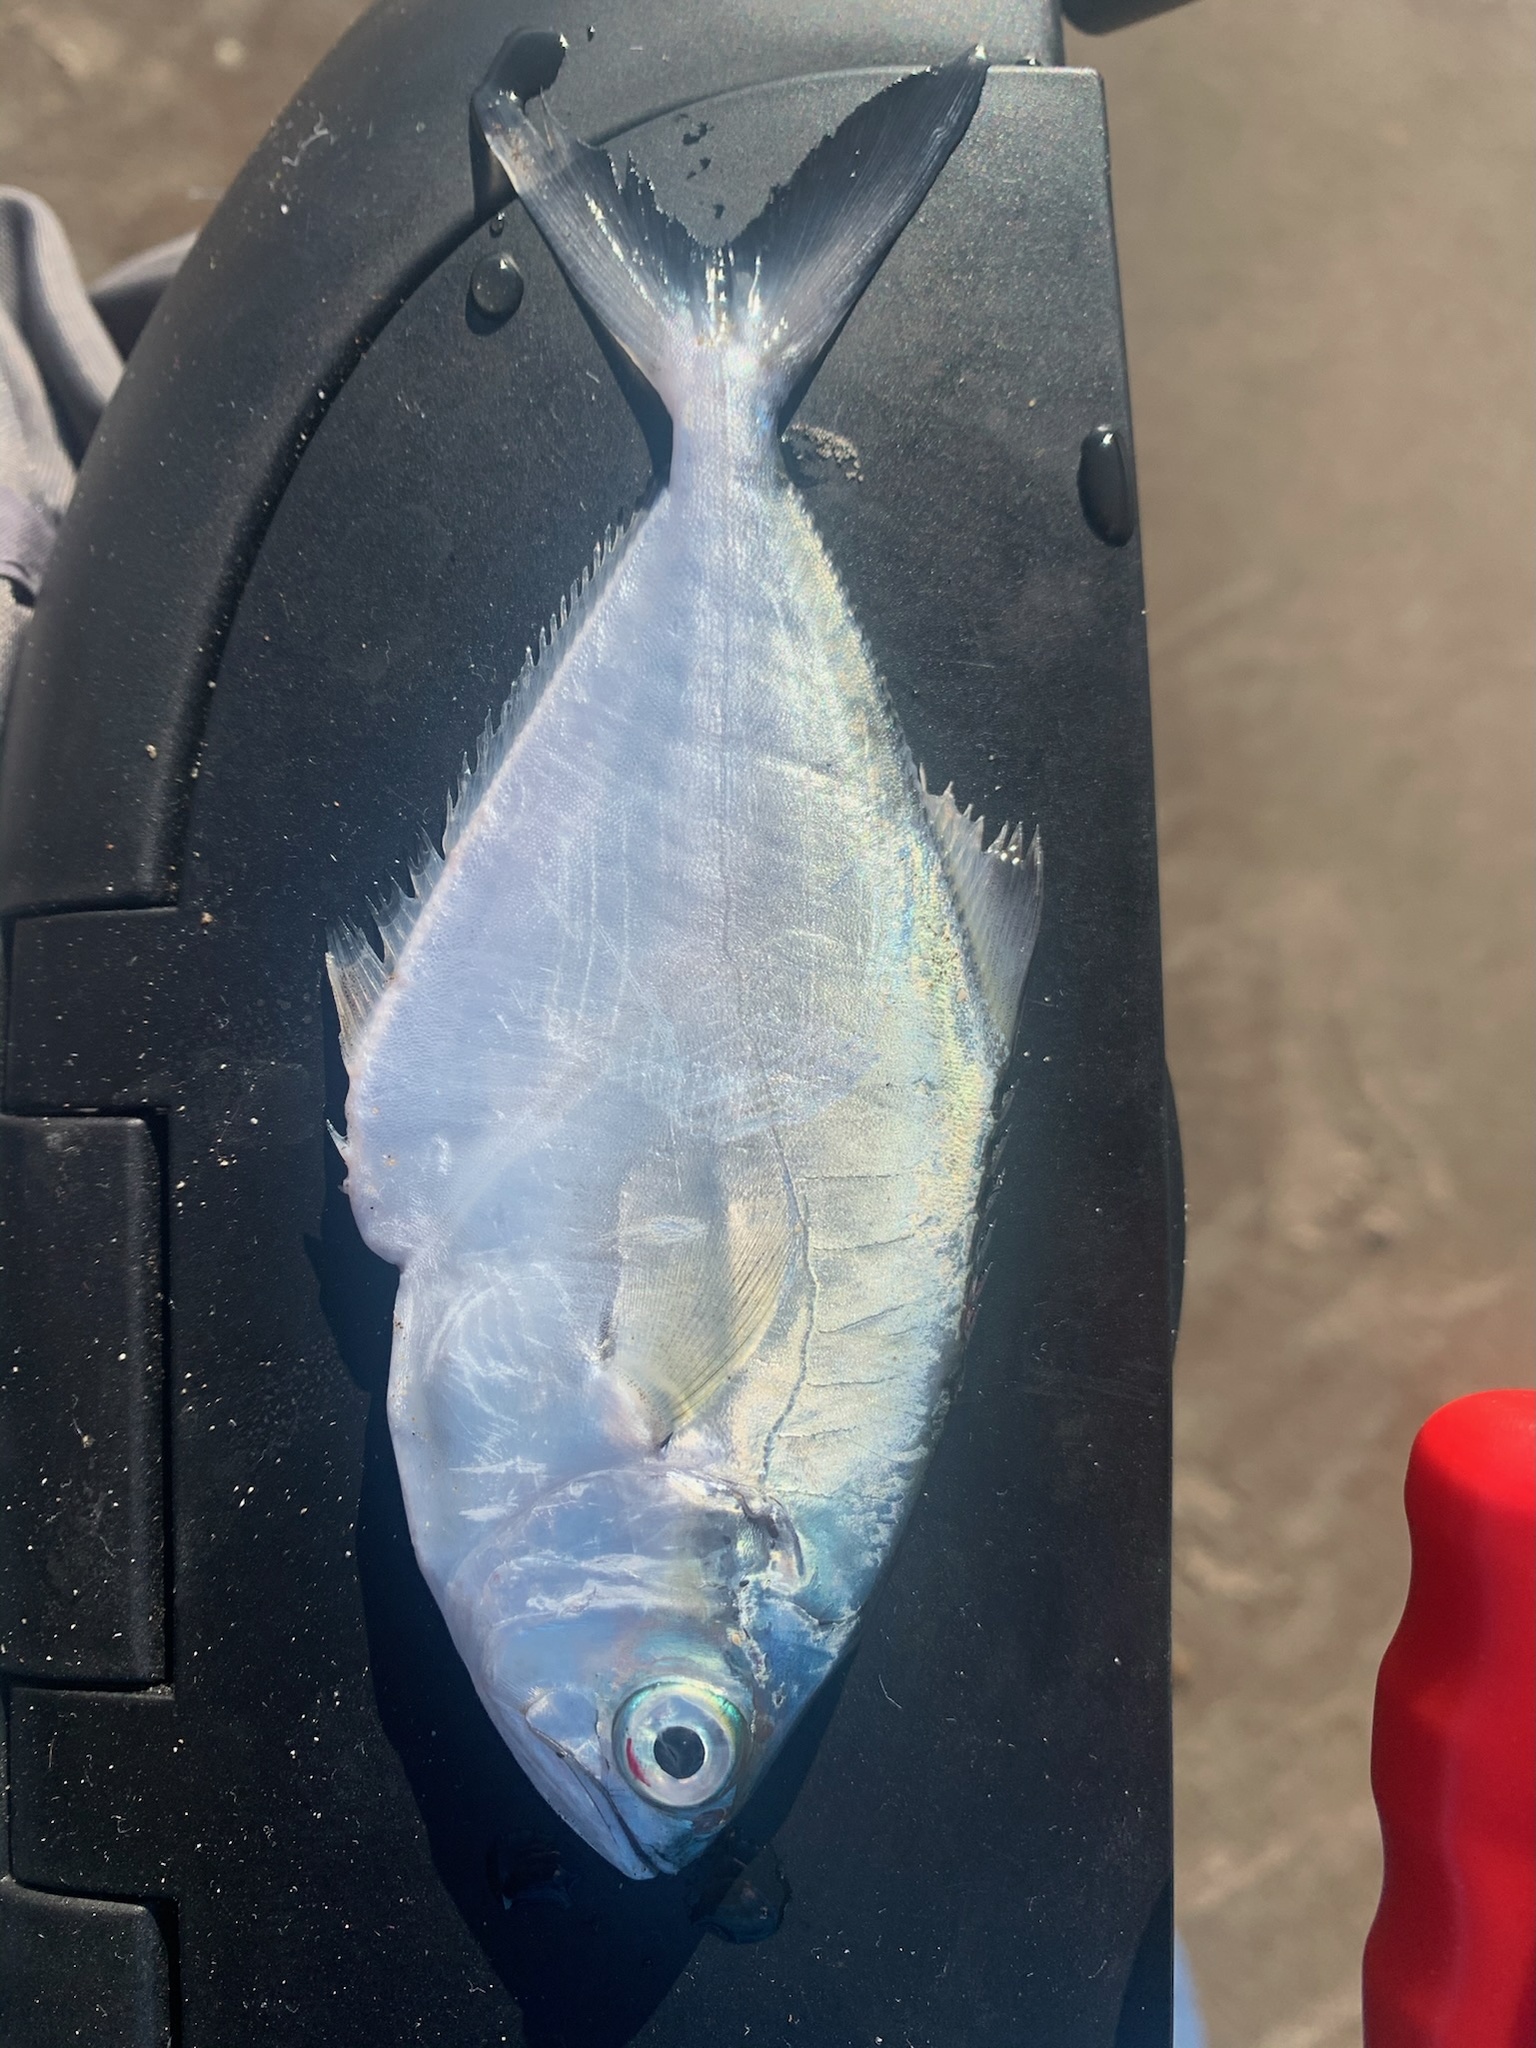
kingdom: Animalia
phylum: Chordata
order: Perciformes
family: Carangidae
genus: Parona
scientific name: Parona signata
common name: Parona leatherjacket
